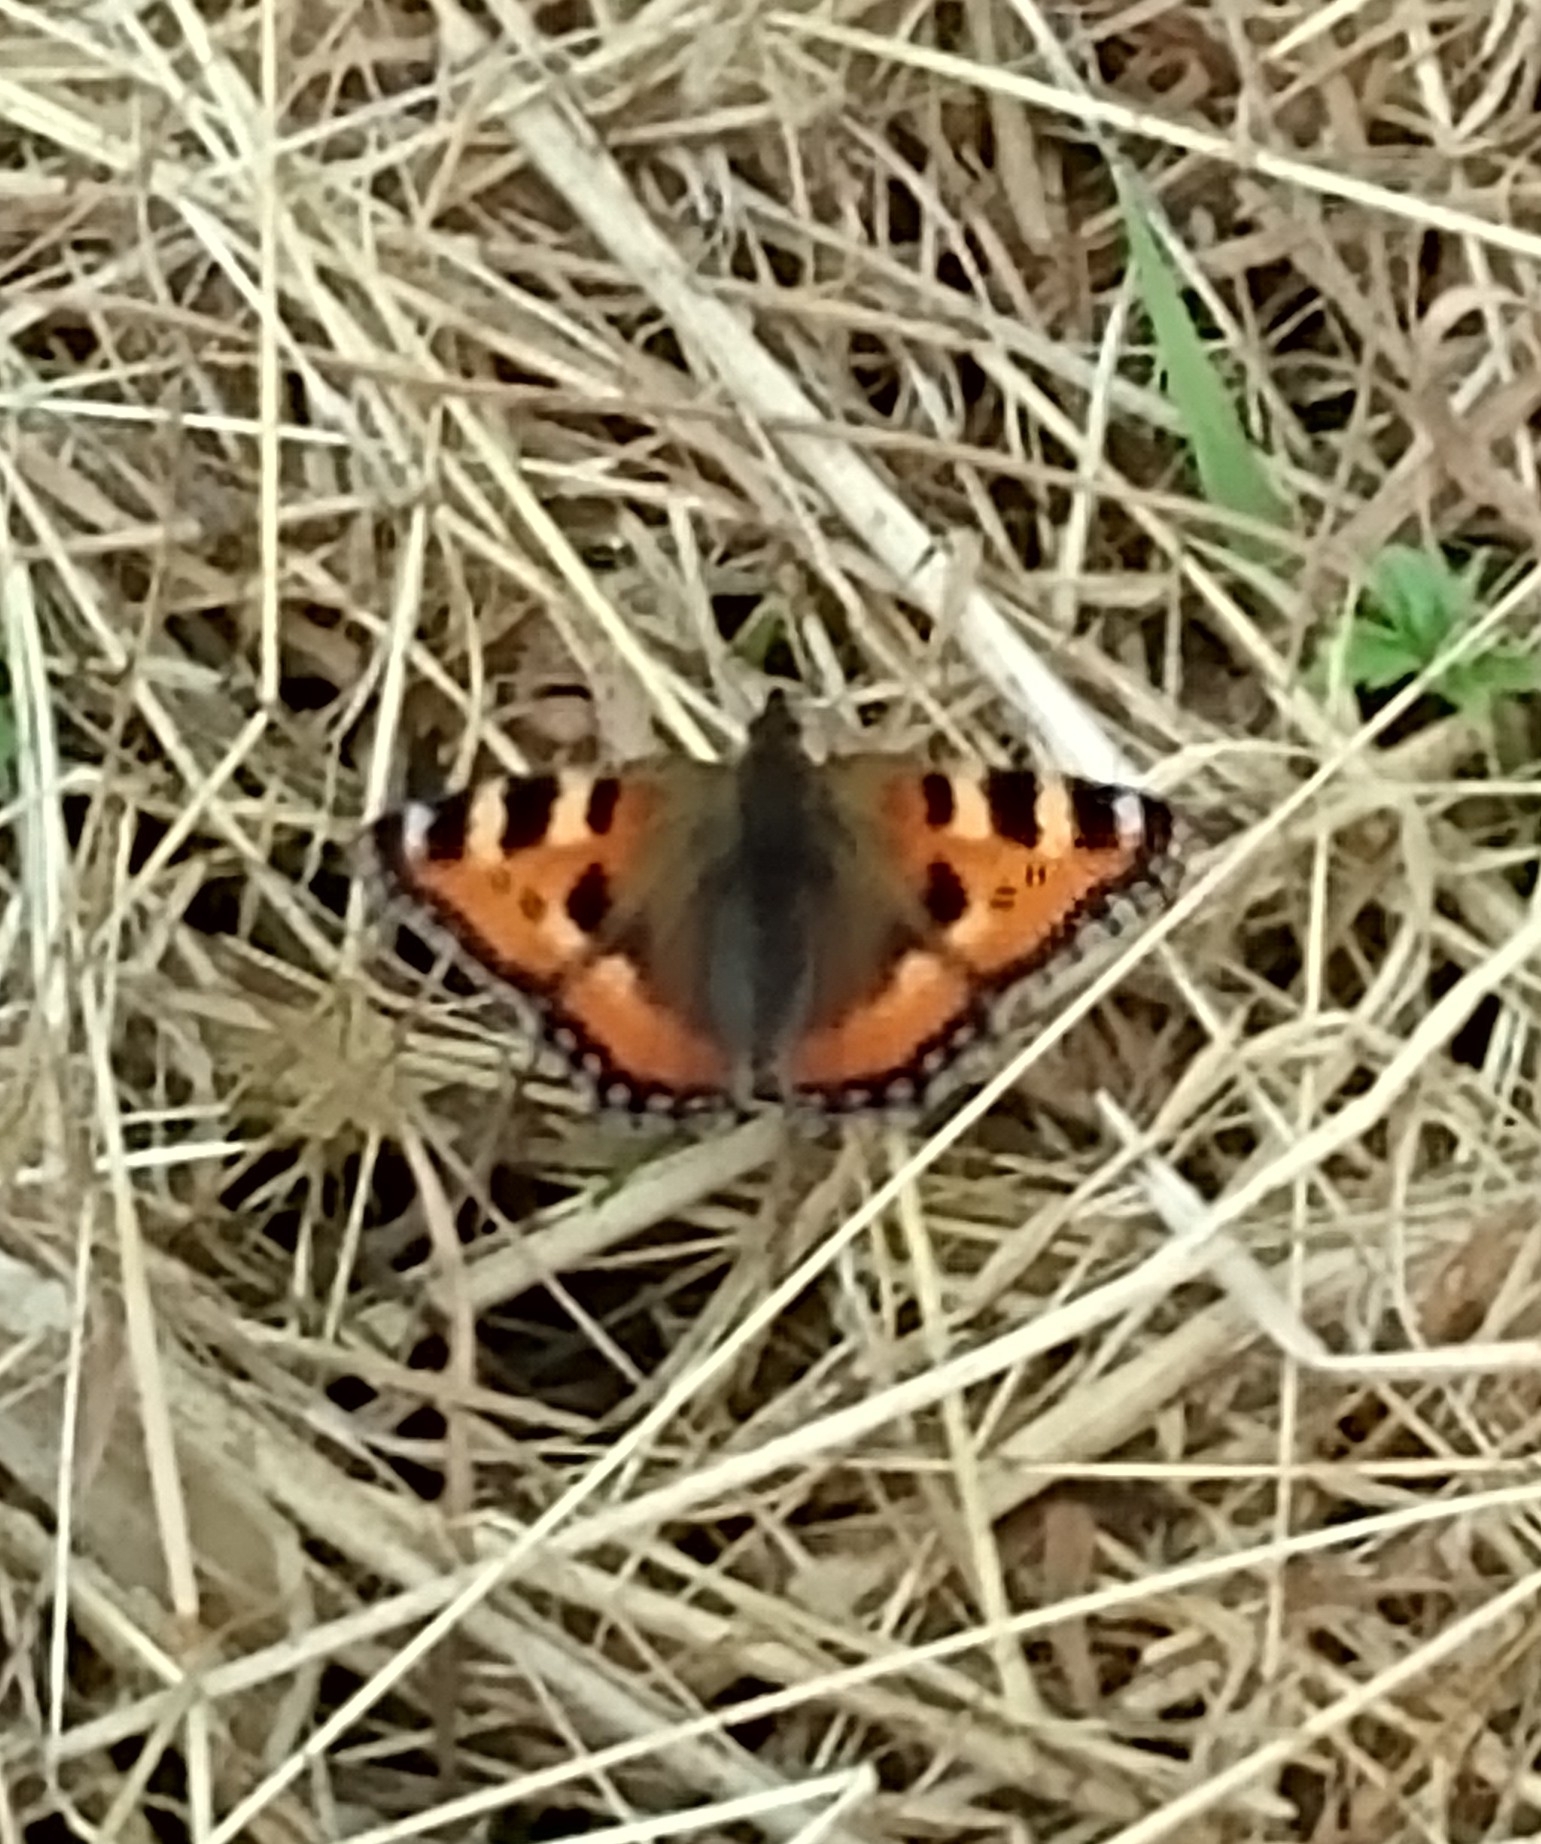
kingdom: Animalia
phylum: Arthropoda
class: Insecta
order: Lepidoptera
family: Nymphalidae
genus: Aglais
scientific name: Aglais urticae
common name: Small tortoiseshell
